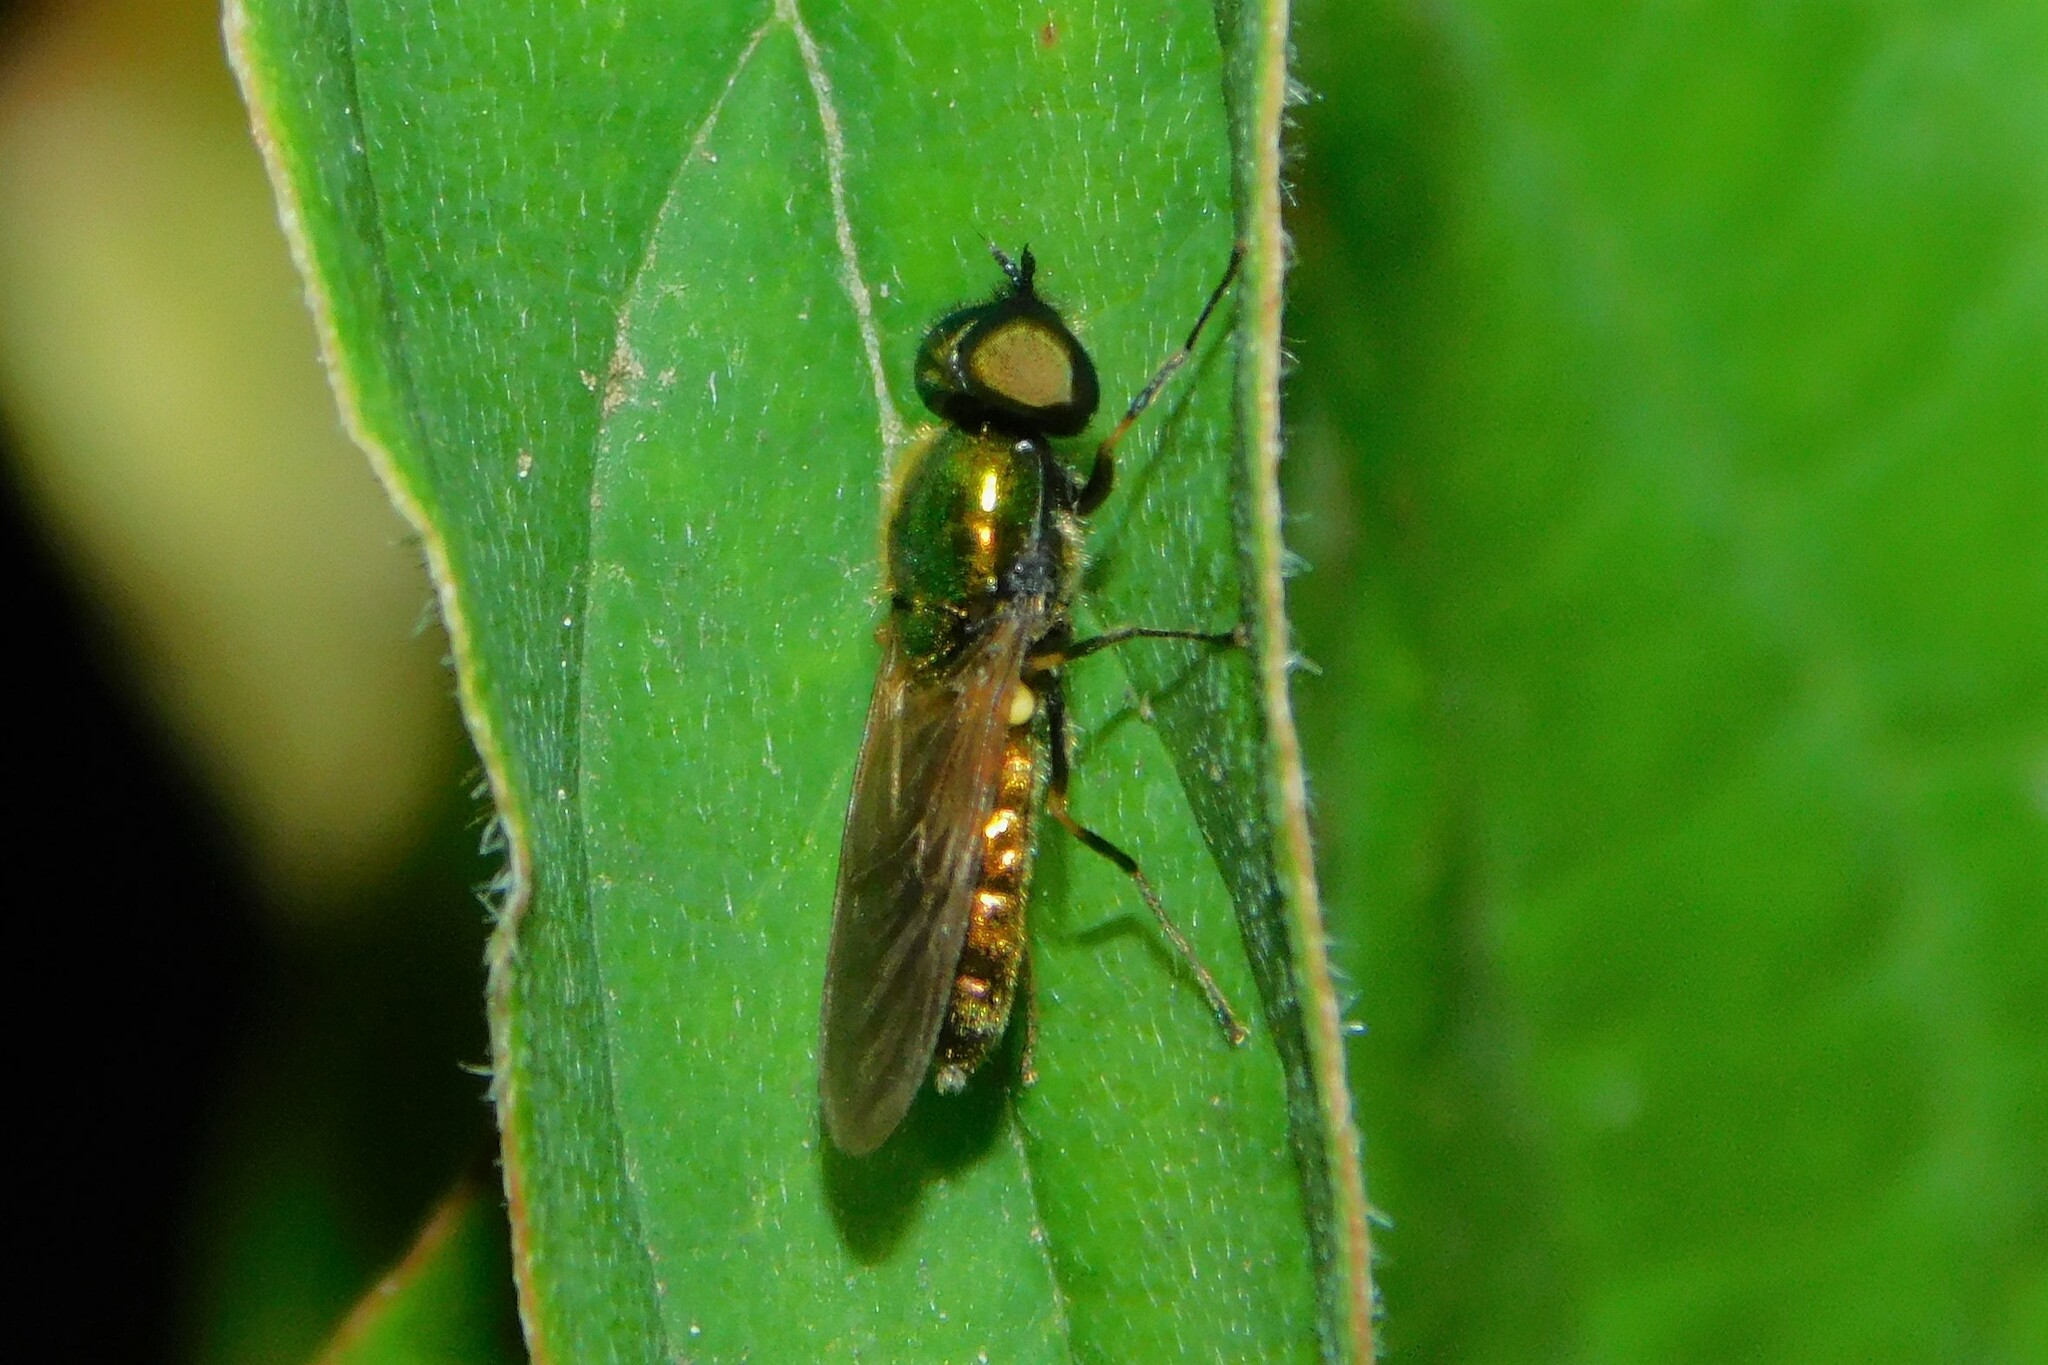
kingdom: Animalia
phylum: Arthropoda
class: Insecta
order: Diptera
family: Stratiomyidae
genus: Chloromyia
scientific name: Chloromyia formosa
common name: Soldier fly
